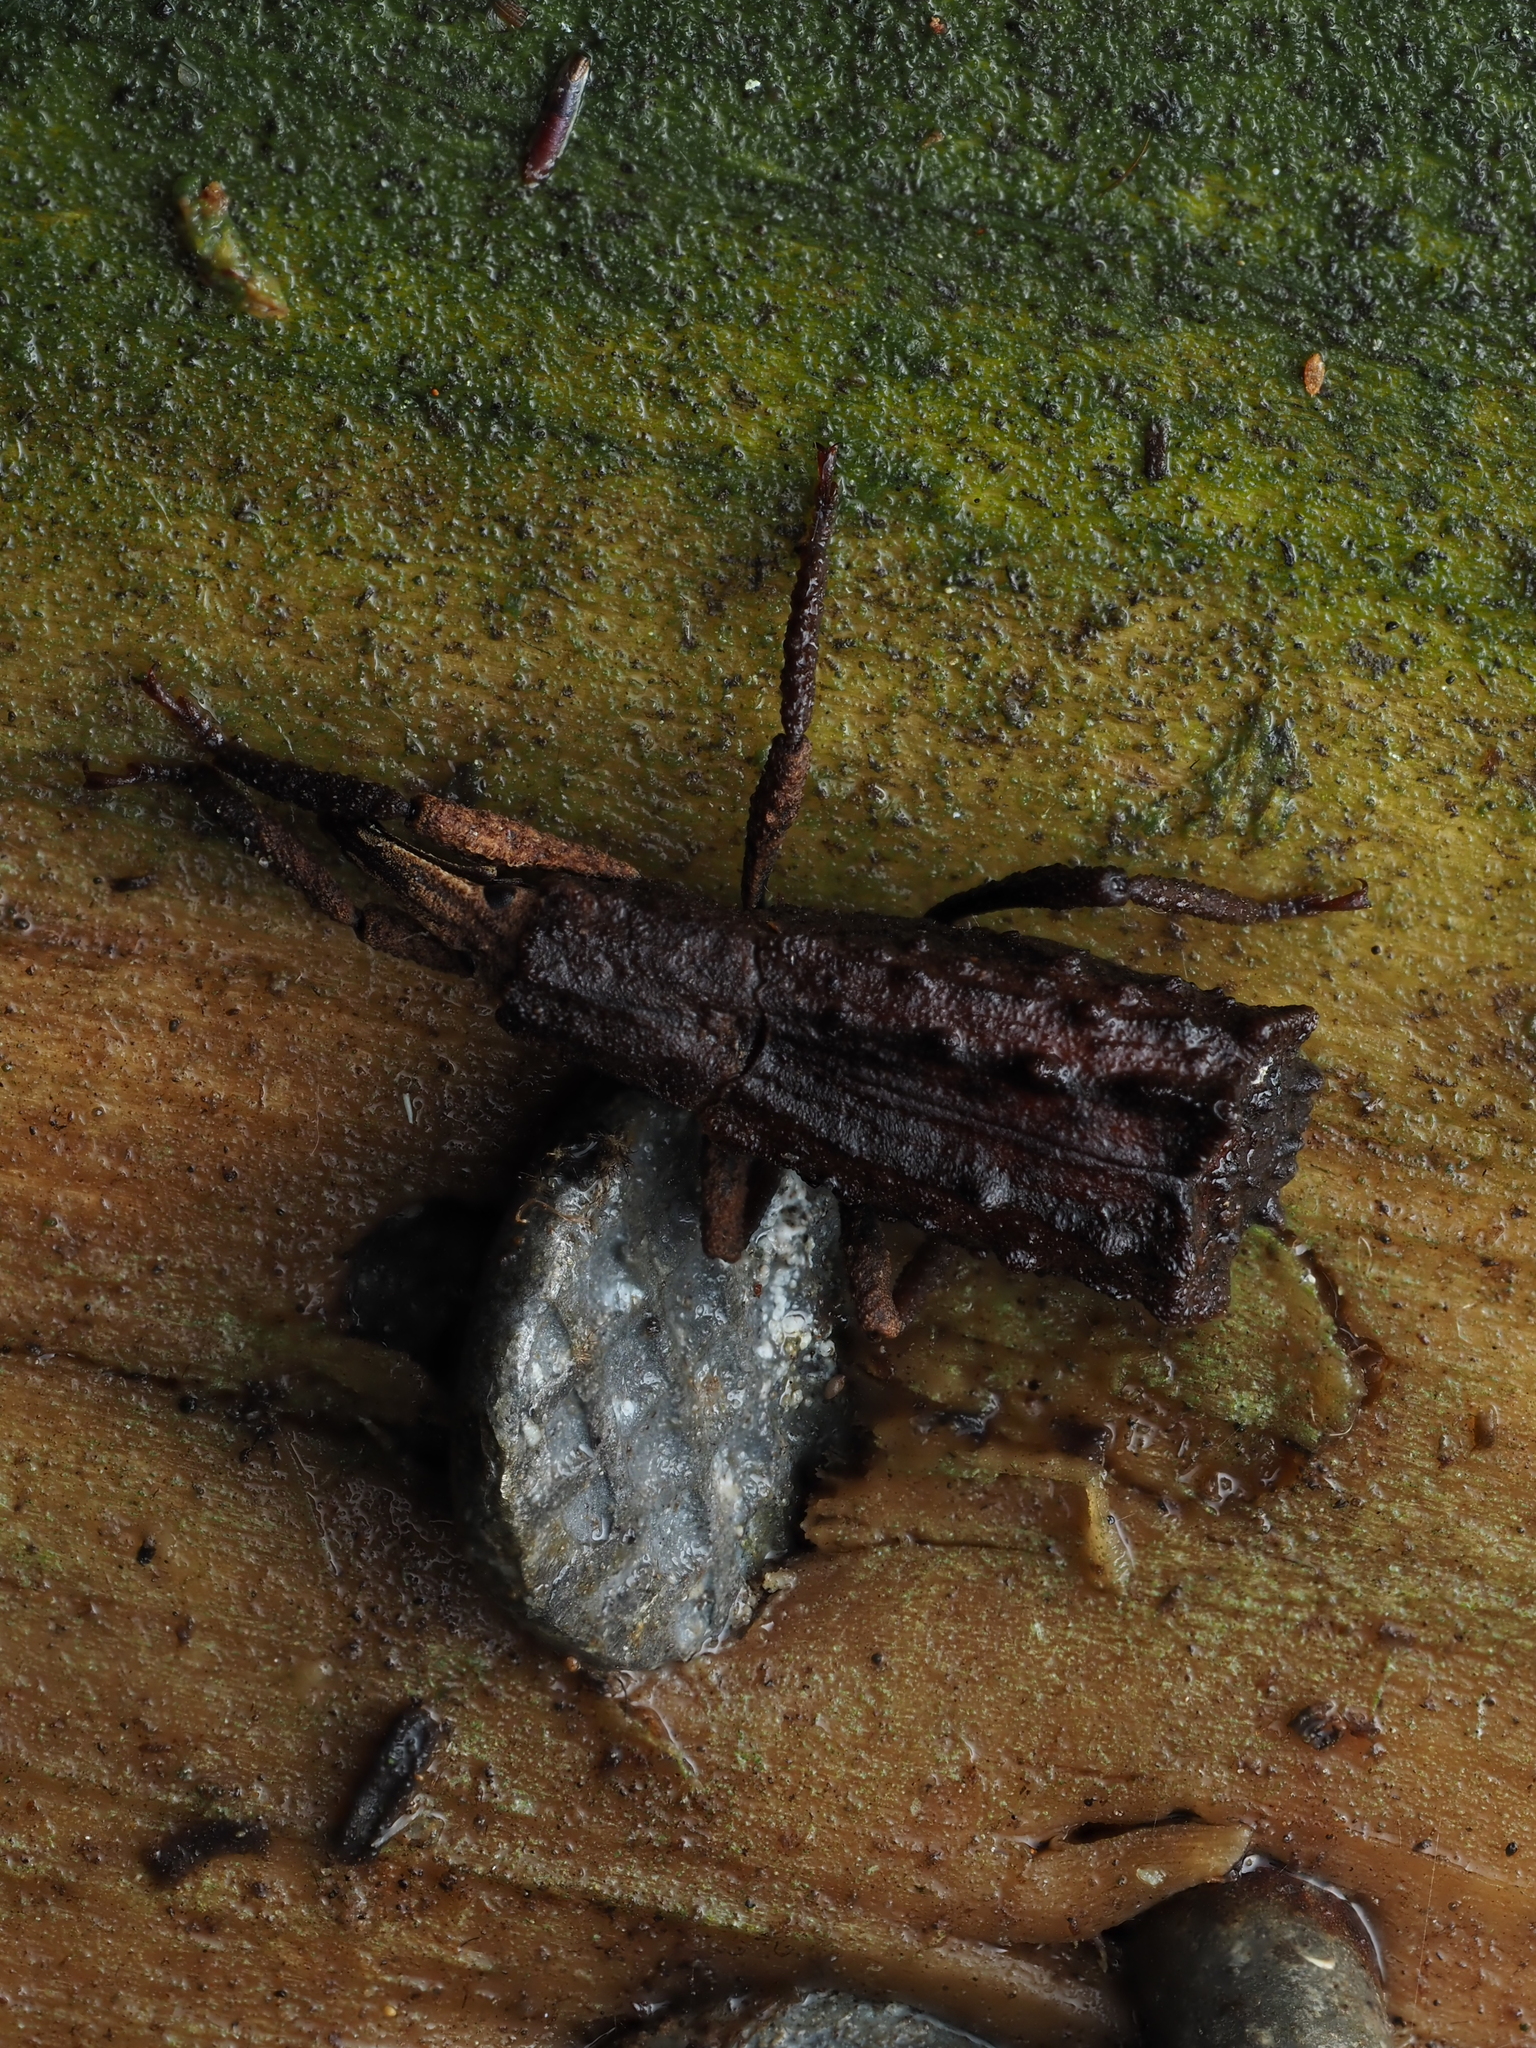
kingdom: Animalia
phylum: Arthropoda
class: Insecta
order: Coleoptera
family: Curculionidae
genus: Cuneopterus
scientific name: Cuneopterus conicus
